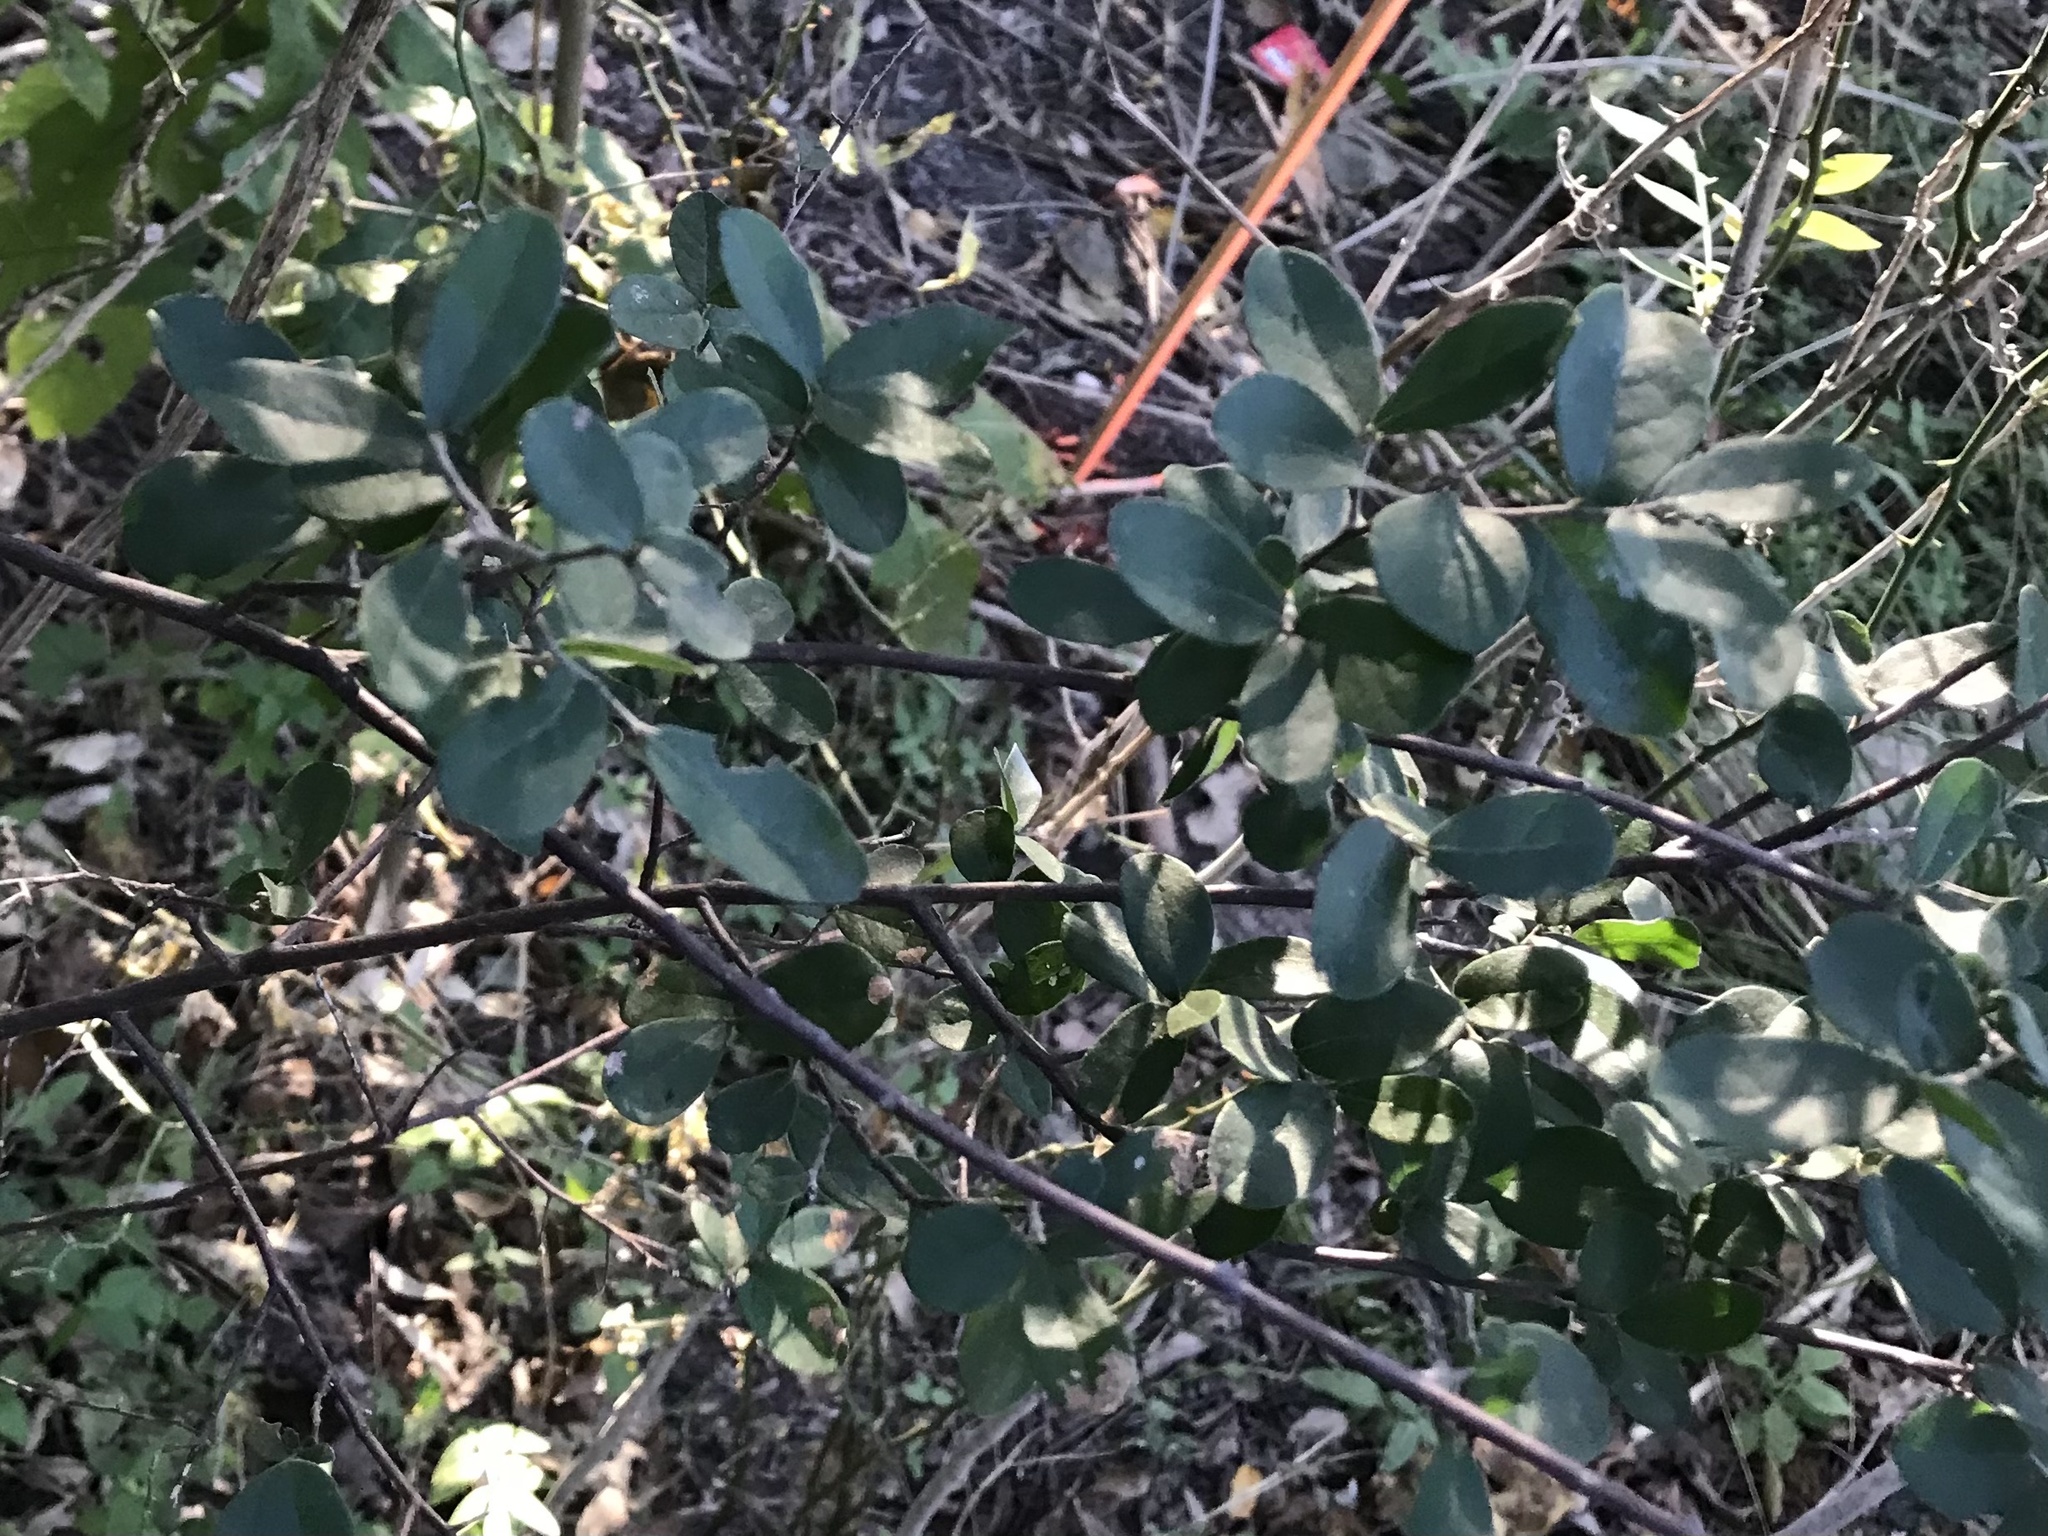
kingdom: Plantae
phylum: Tracheophyta
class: Magnoliopsida
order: Ericales
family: Ebenaceae
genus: Diospyros
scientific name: Diospyros texana
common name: Texas persimmon
